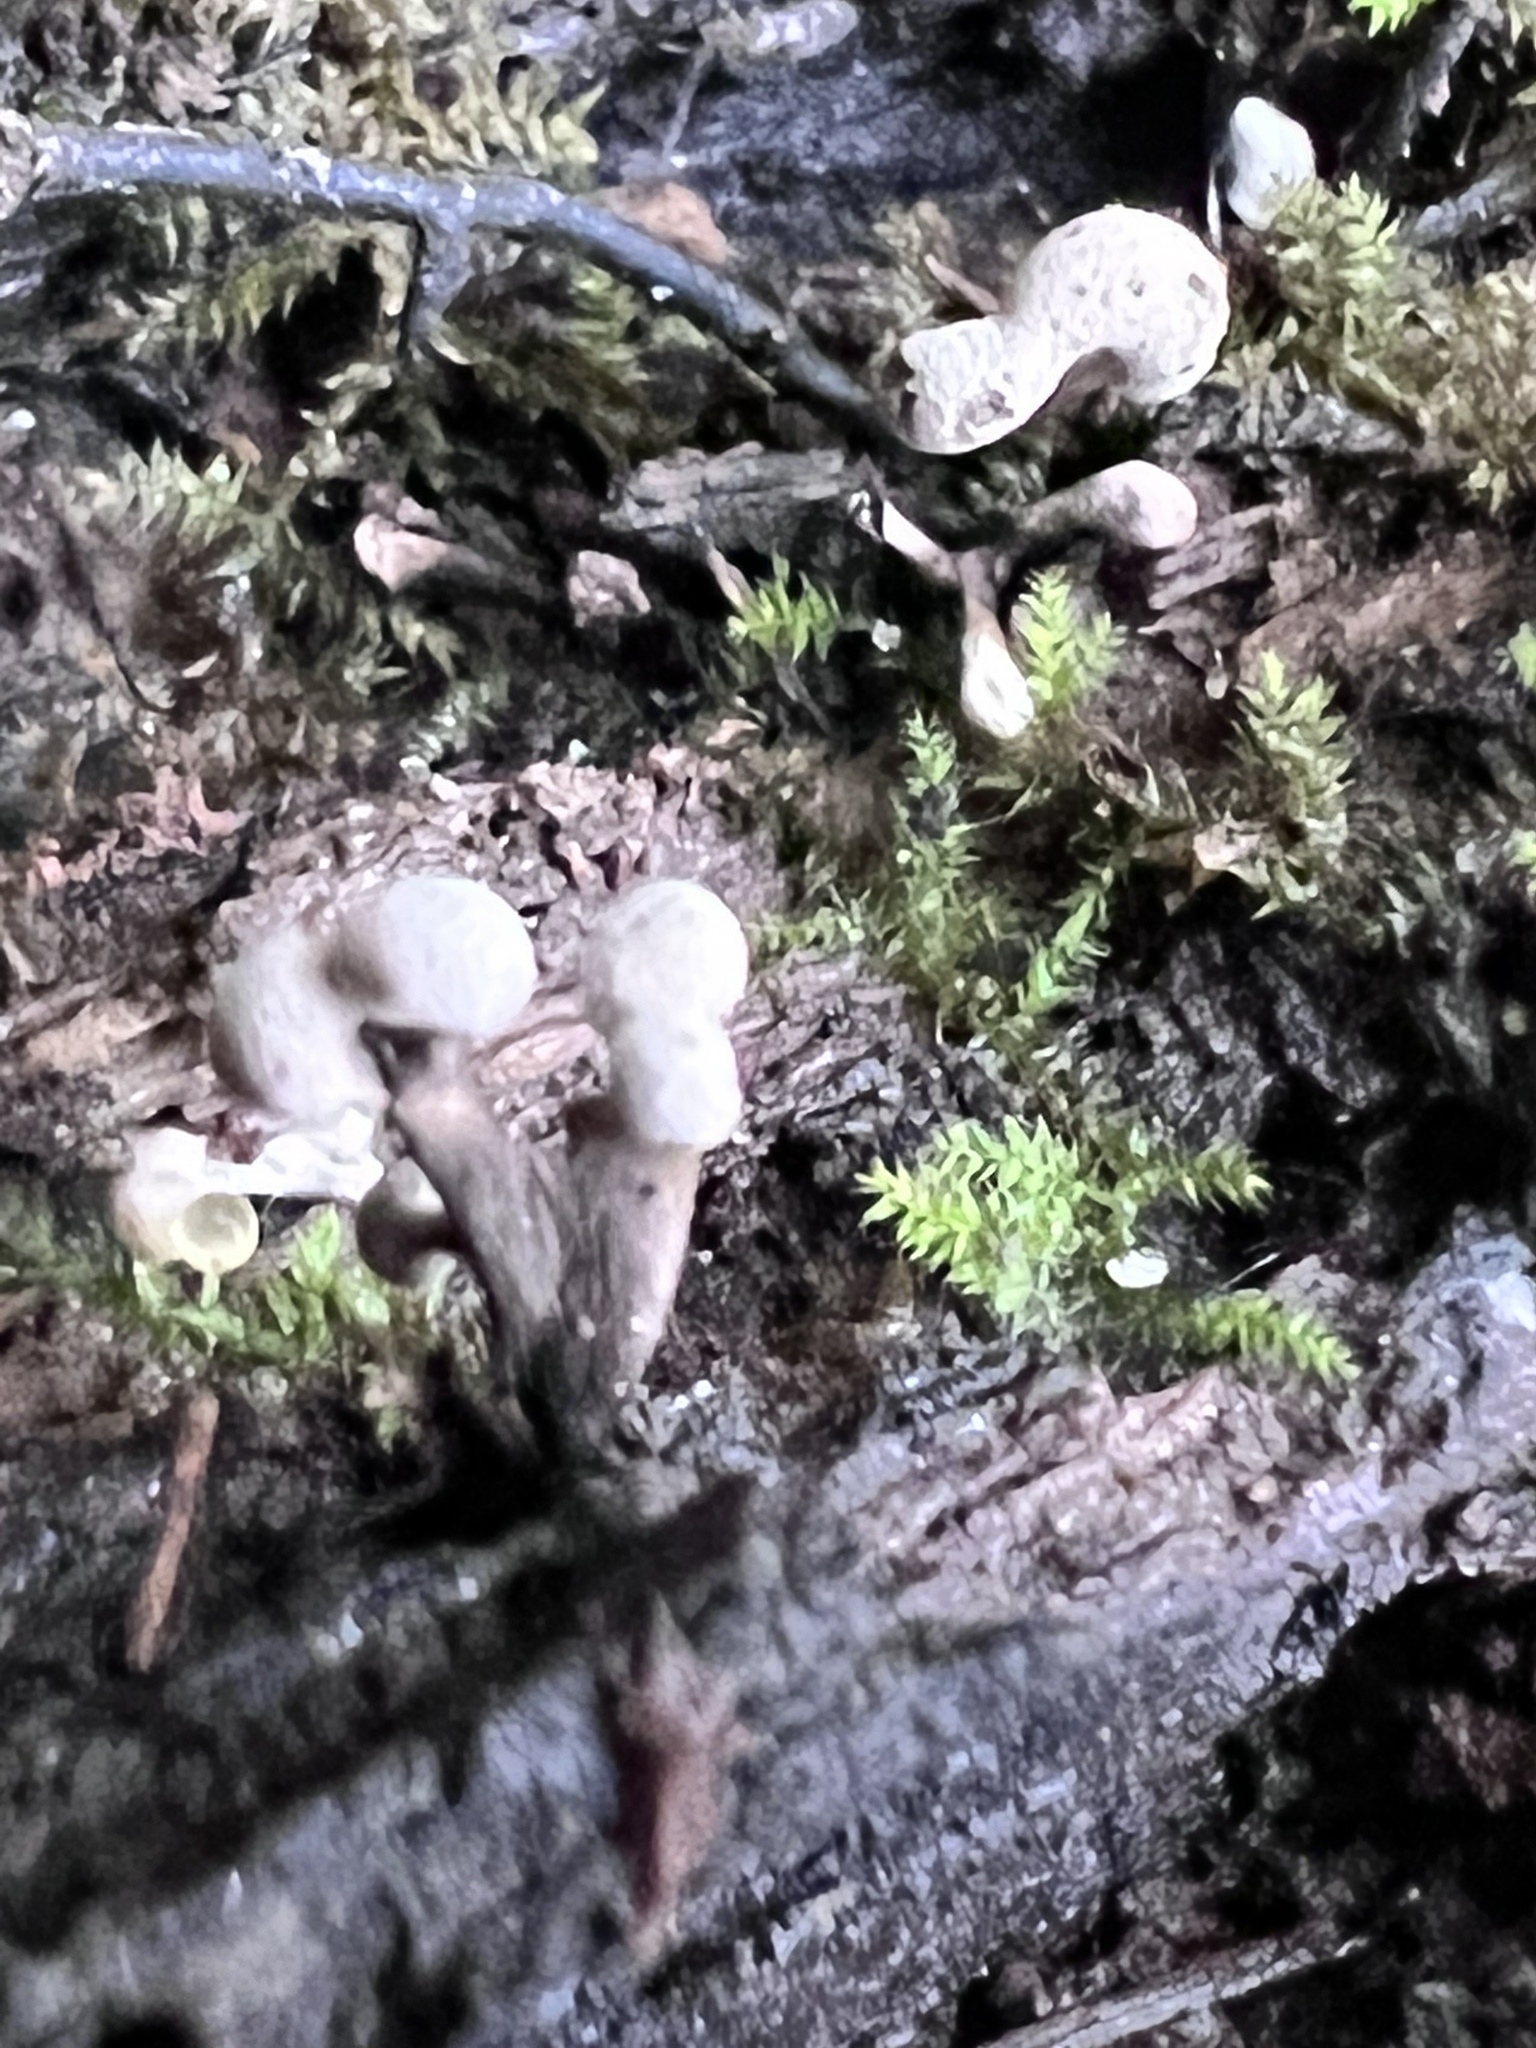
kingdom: Fungi
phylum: Basidiomycota
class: Atractiellomycetes
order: Atractiellales
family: Phleogenaceae
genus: Phleogena
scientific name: Phleogena faginea
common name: Fenugreek stalkball
